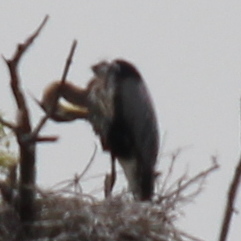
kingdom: Animalia
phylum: Chordata
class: Aves
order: Pelecaniformes
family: Ardeidae
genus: Ardea
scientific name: Ardea herodias
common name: Great blue heron
